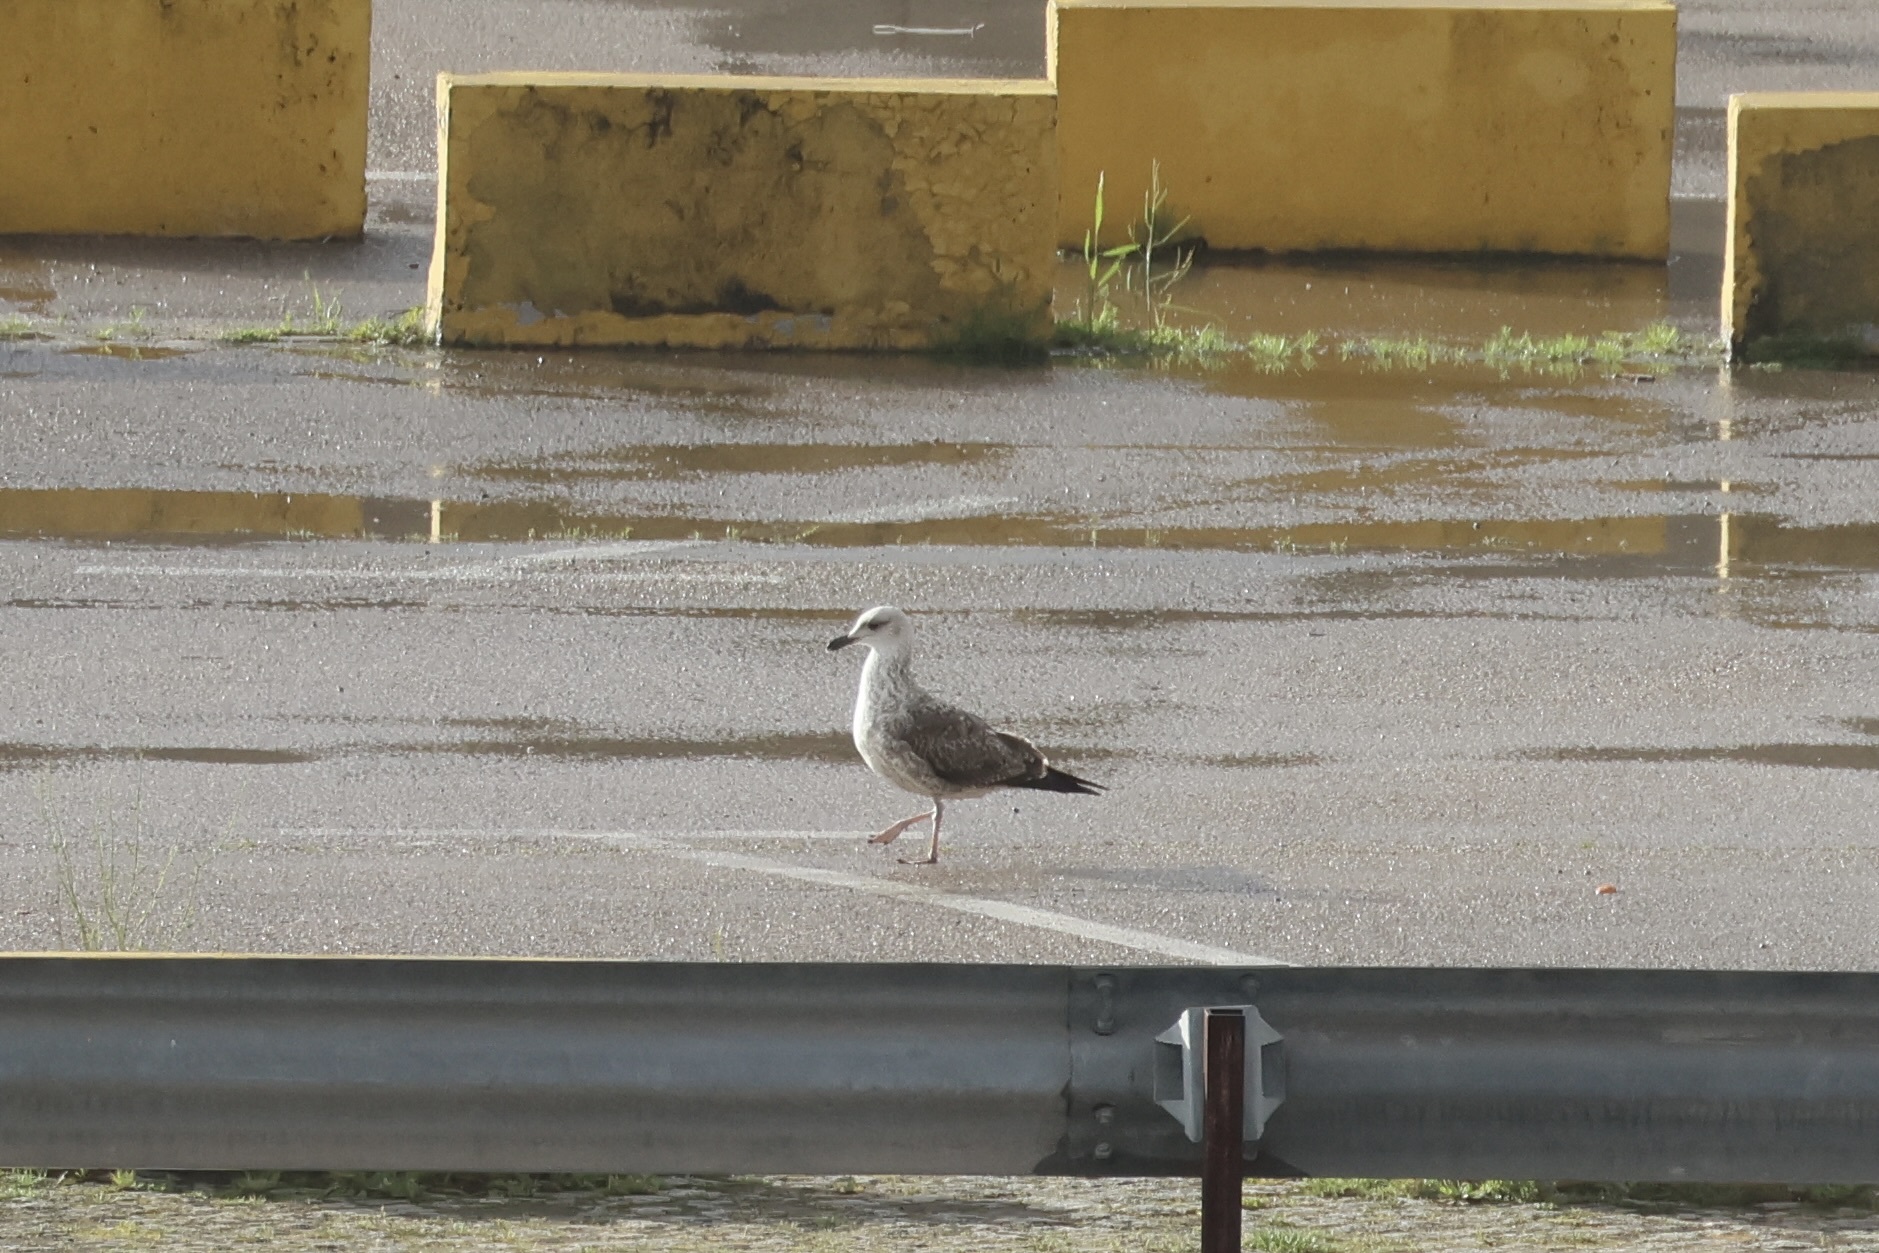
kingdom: Animalia
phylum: Chordata
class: Aves
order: Charadriiformes
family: Laridae
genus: Larus
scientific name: Larus fuscus
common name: Lesser black-backed gull
